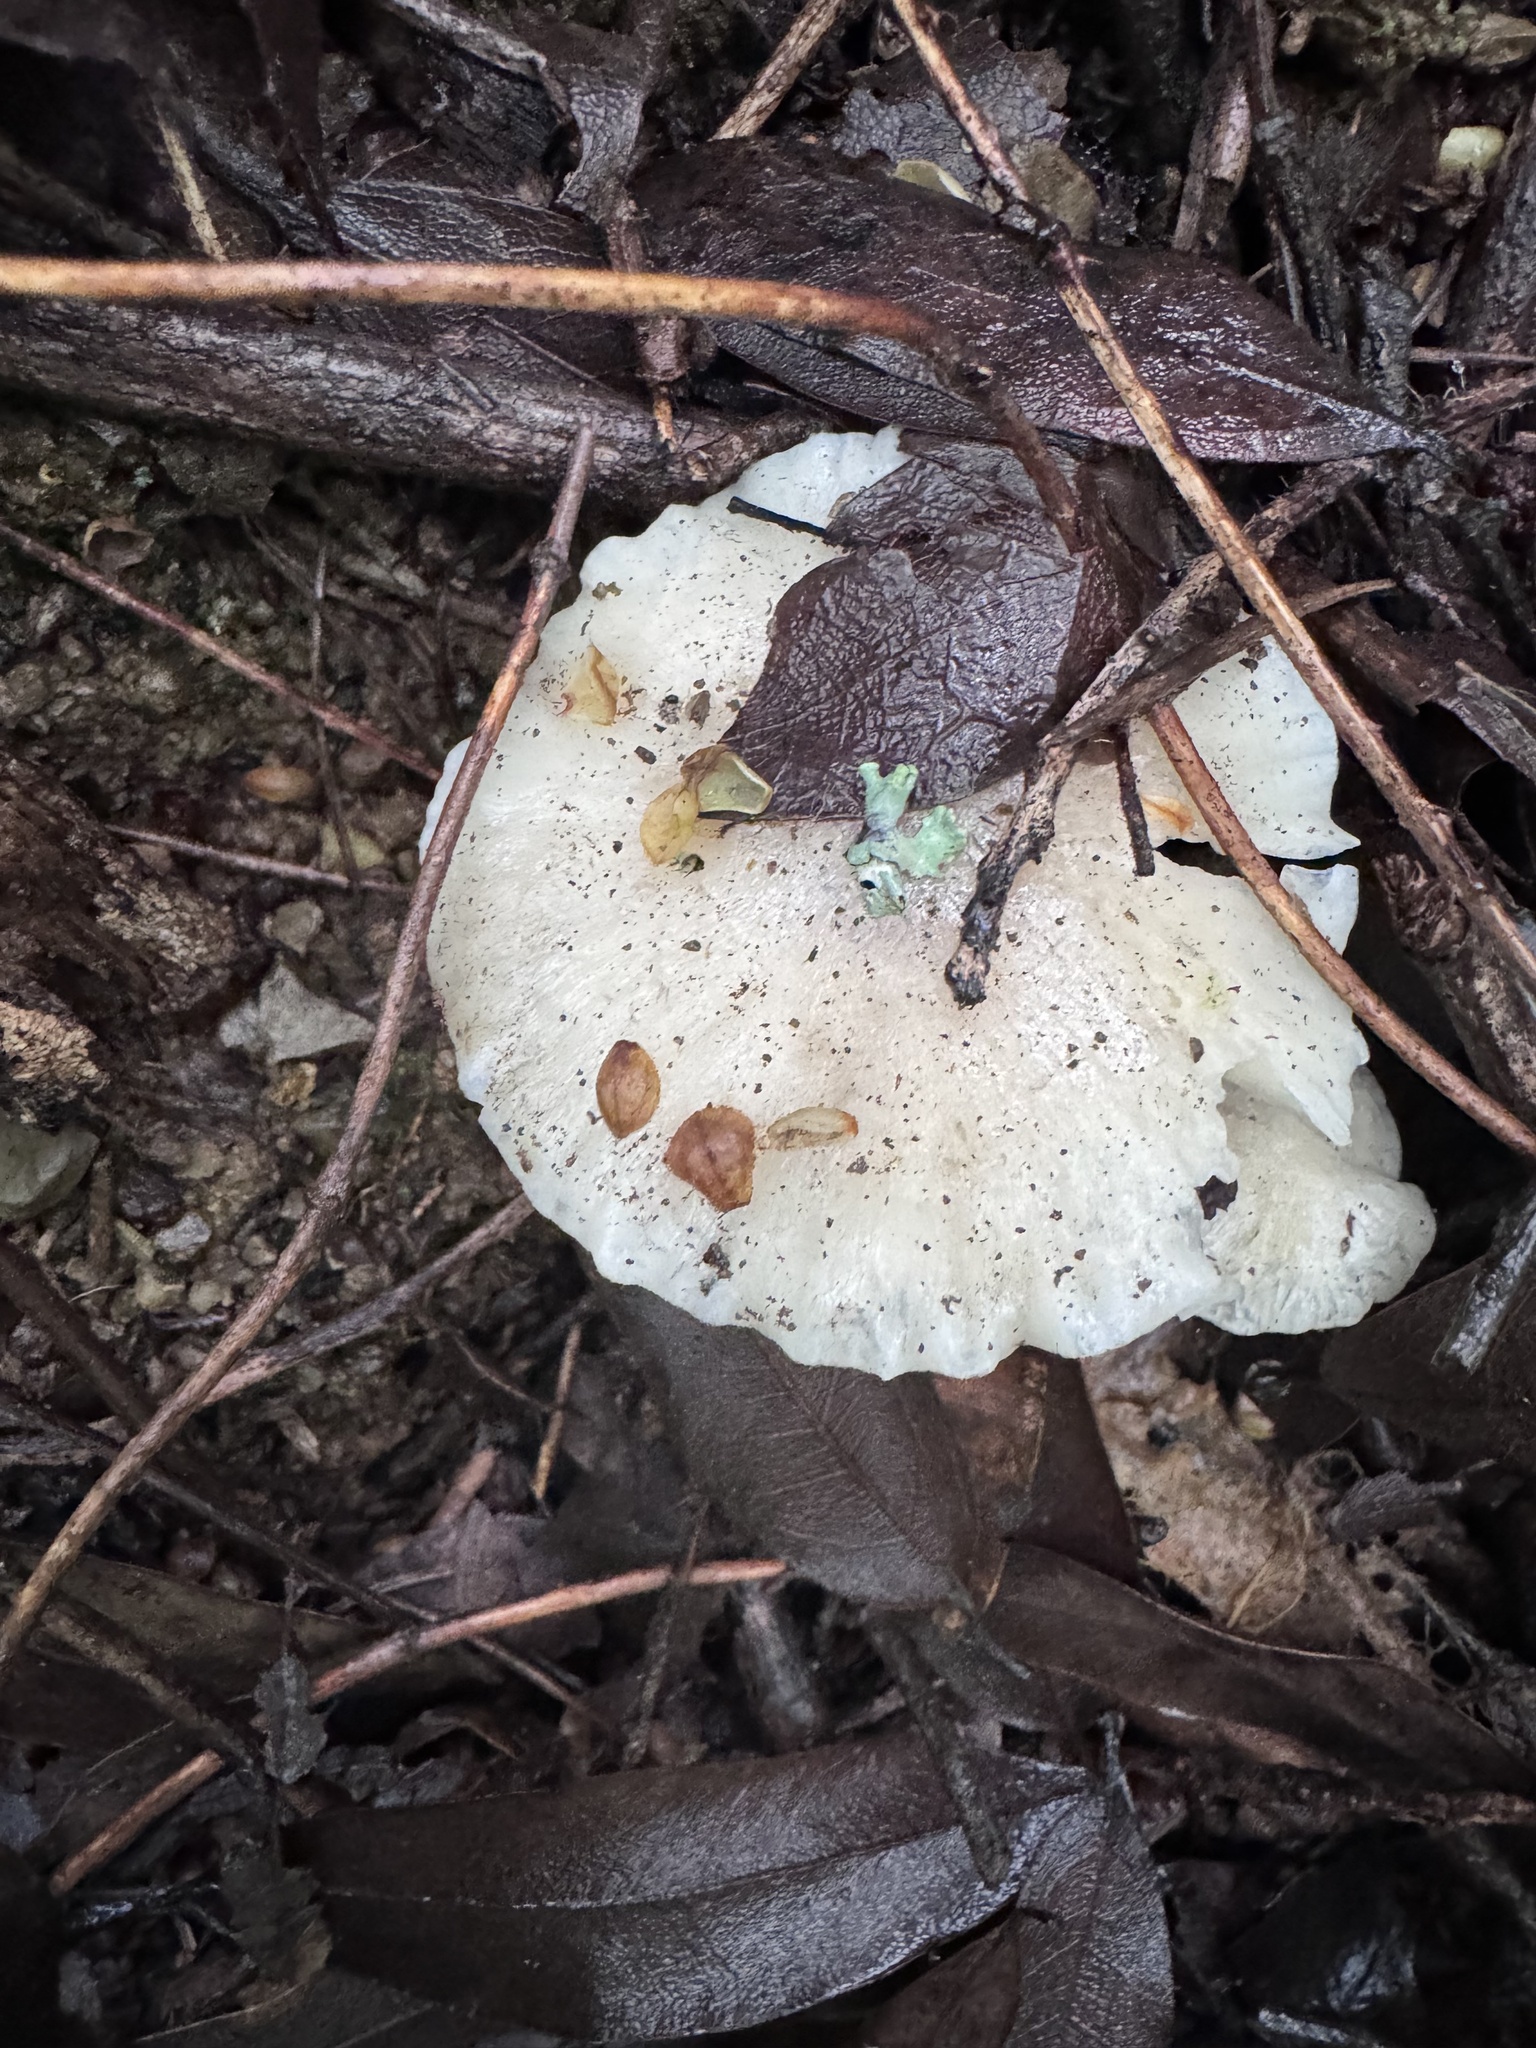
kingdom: Fungi
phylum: Basidiomycota
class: Agaricomycetes
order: Agaricales
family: Tricholomataceae
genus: Tricholoma
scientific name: Tricholoma saponaceum
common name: Soapy trich
